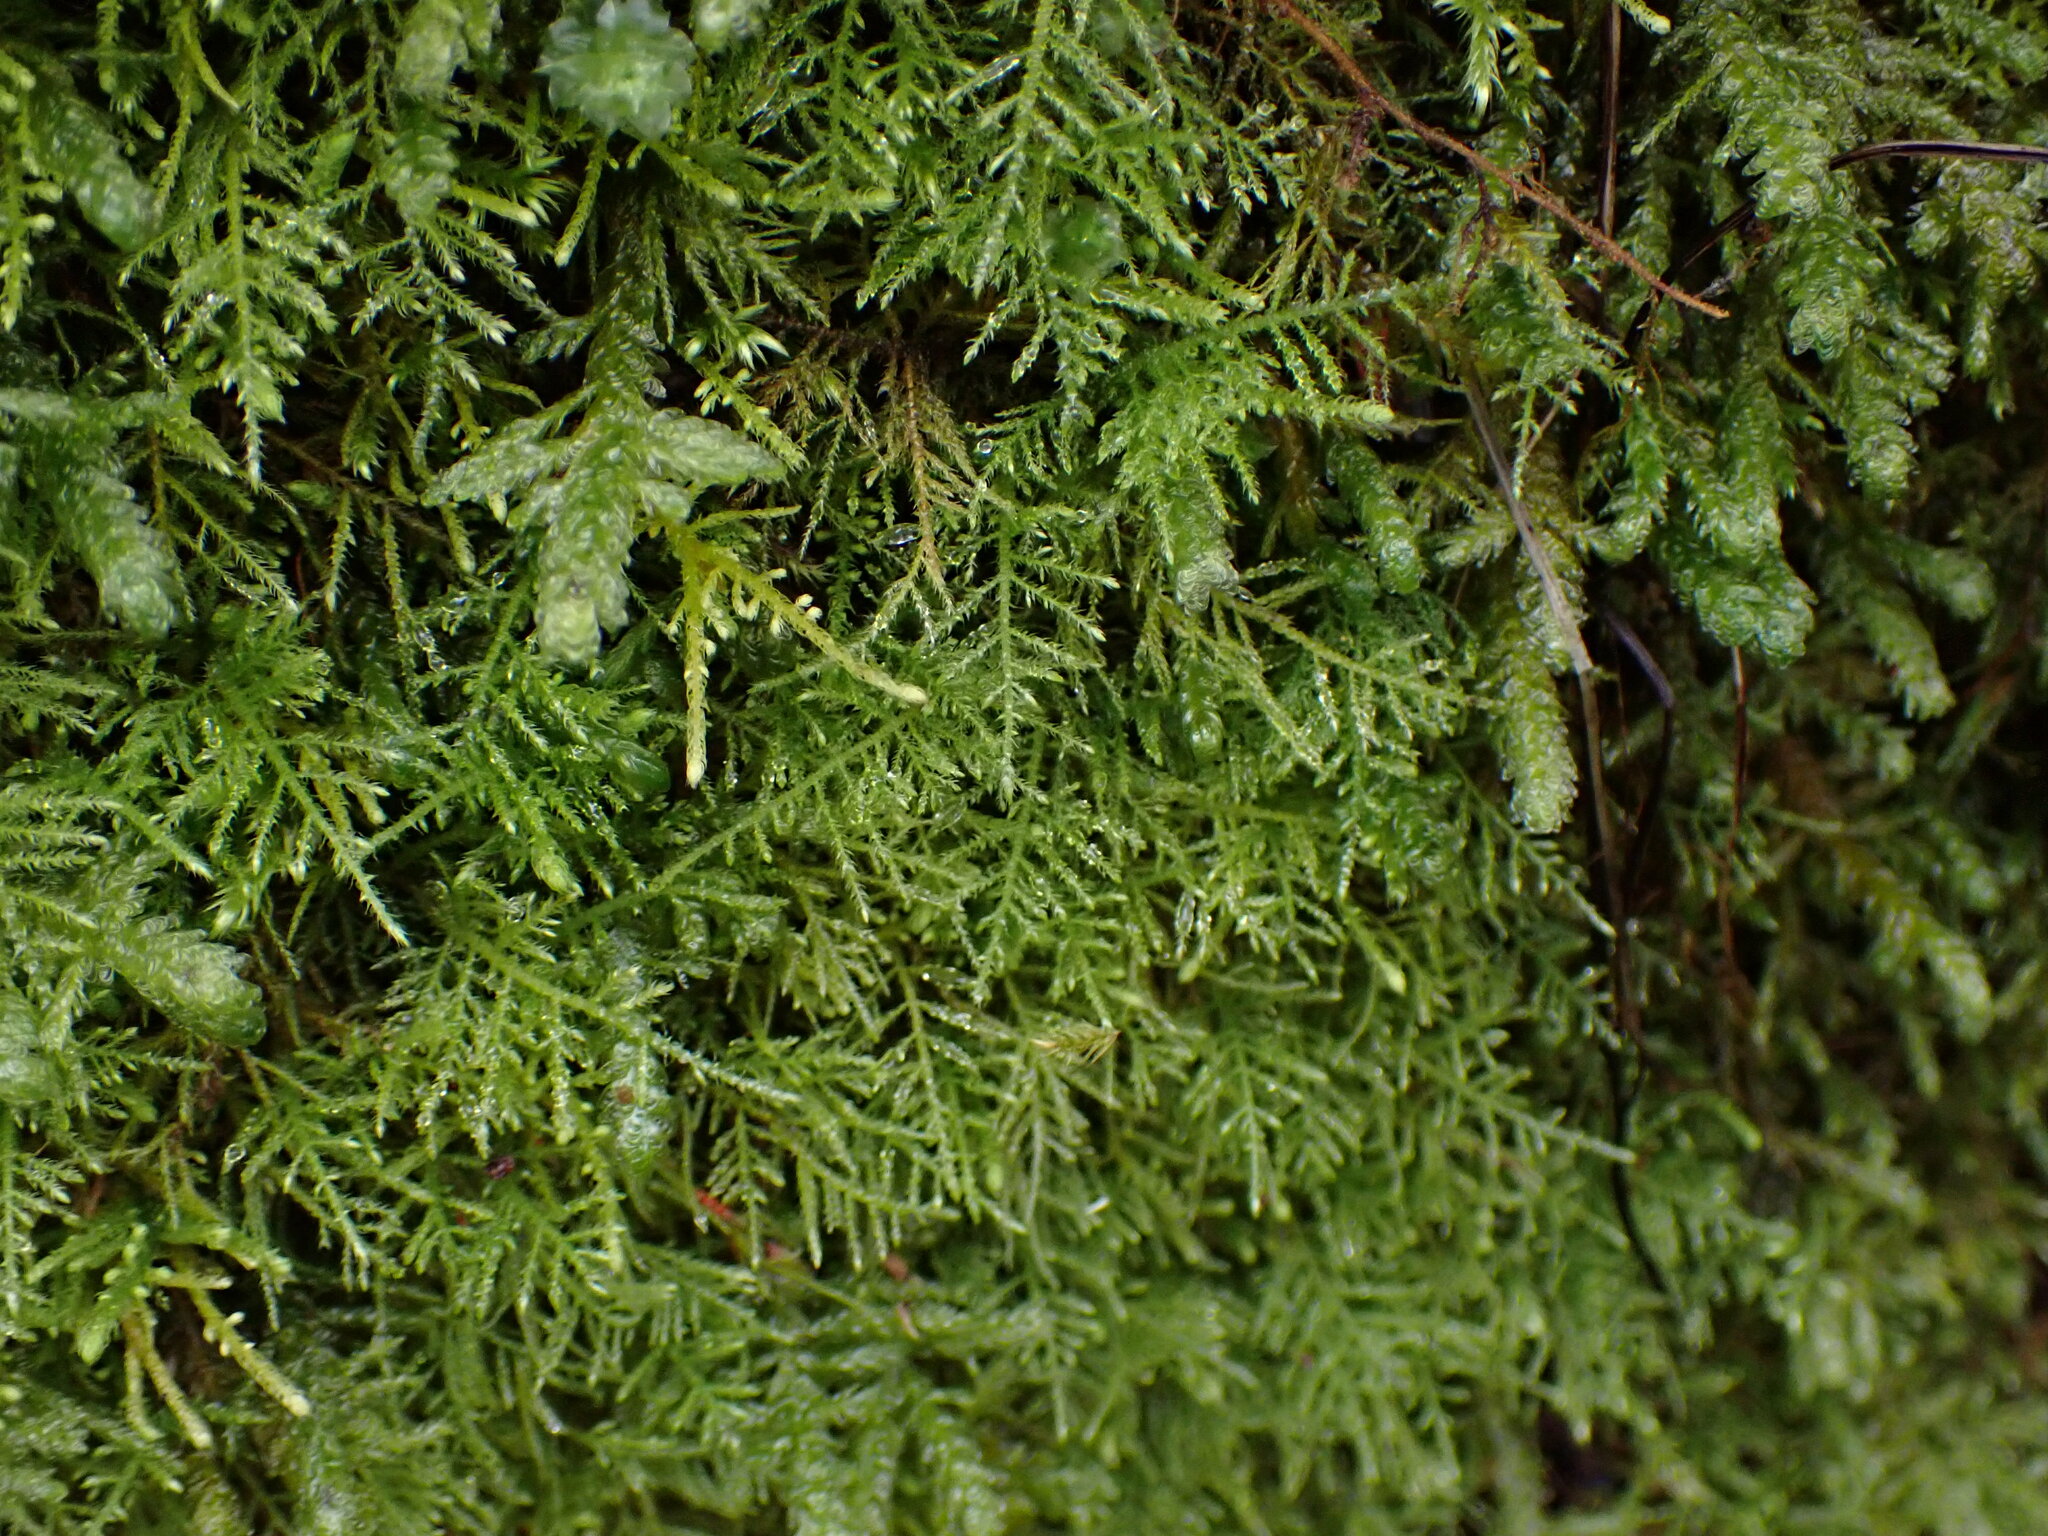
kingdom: Plantae
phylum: Bryophyta
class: Bryopsida
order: Hypnales
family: Brachytheciaceae
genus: Kindbergia
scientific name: Kindbergia praelonga
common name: Slender beaked moss
